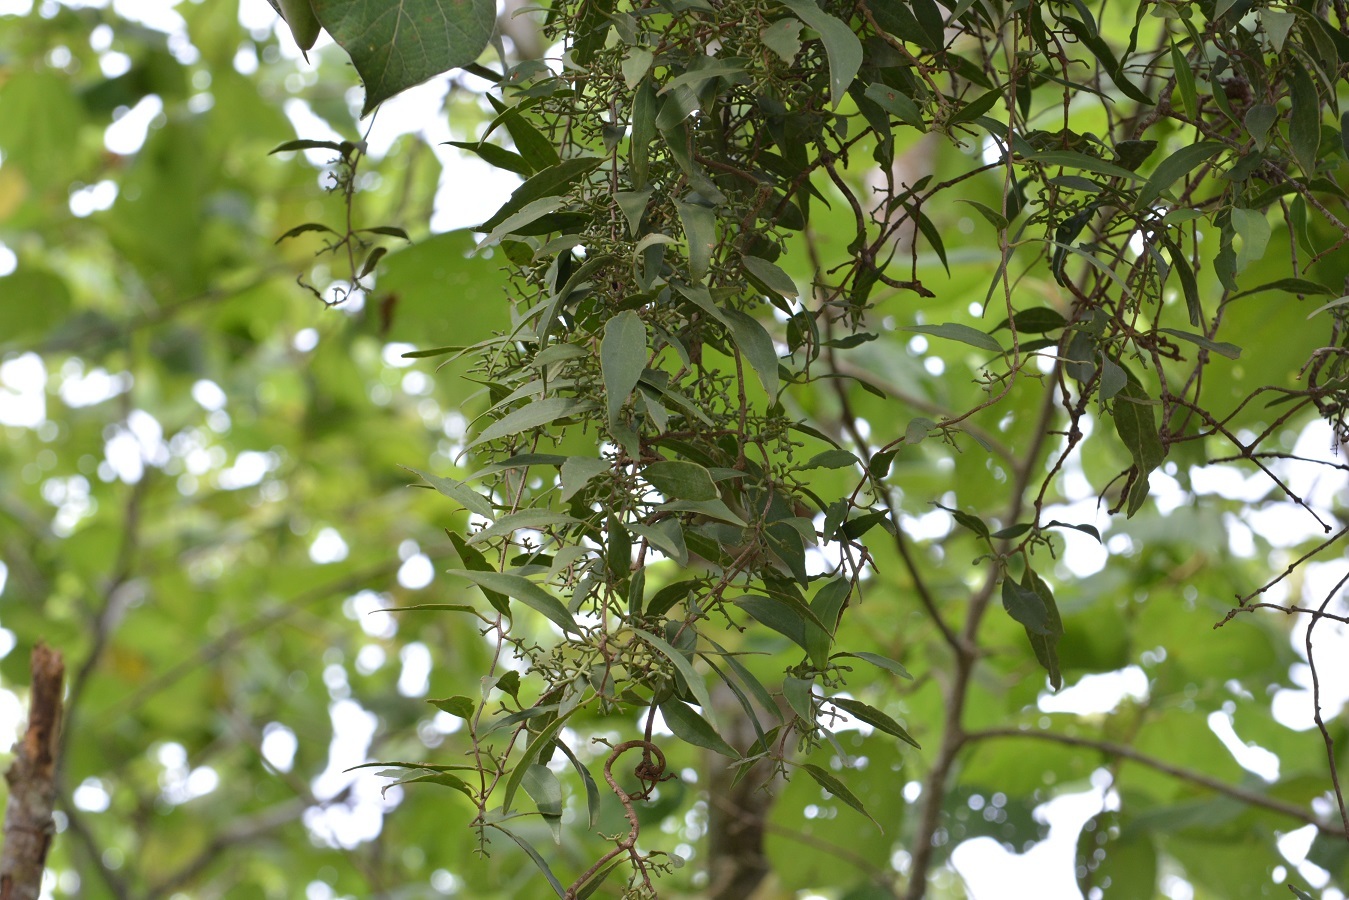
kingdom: Plantae
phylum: Tracheophyta
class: Magnoliopsida
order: Santalales
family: Loranthaceae
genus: Struthanthus
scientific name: Struthanthus quercicola
